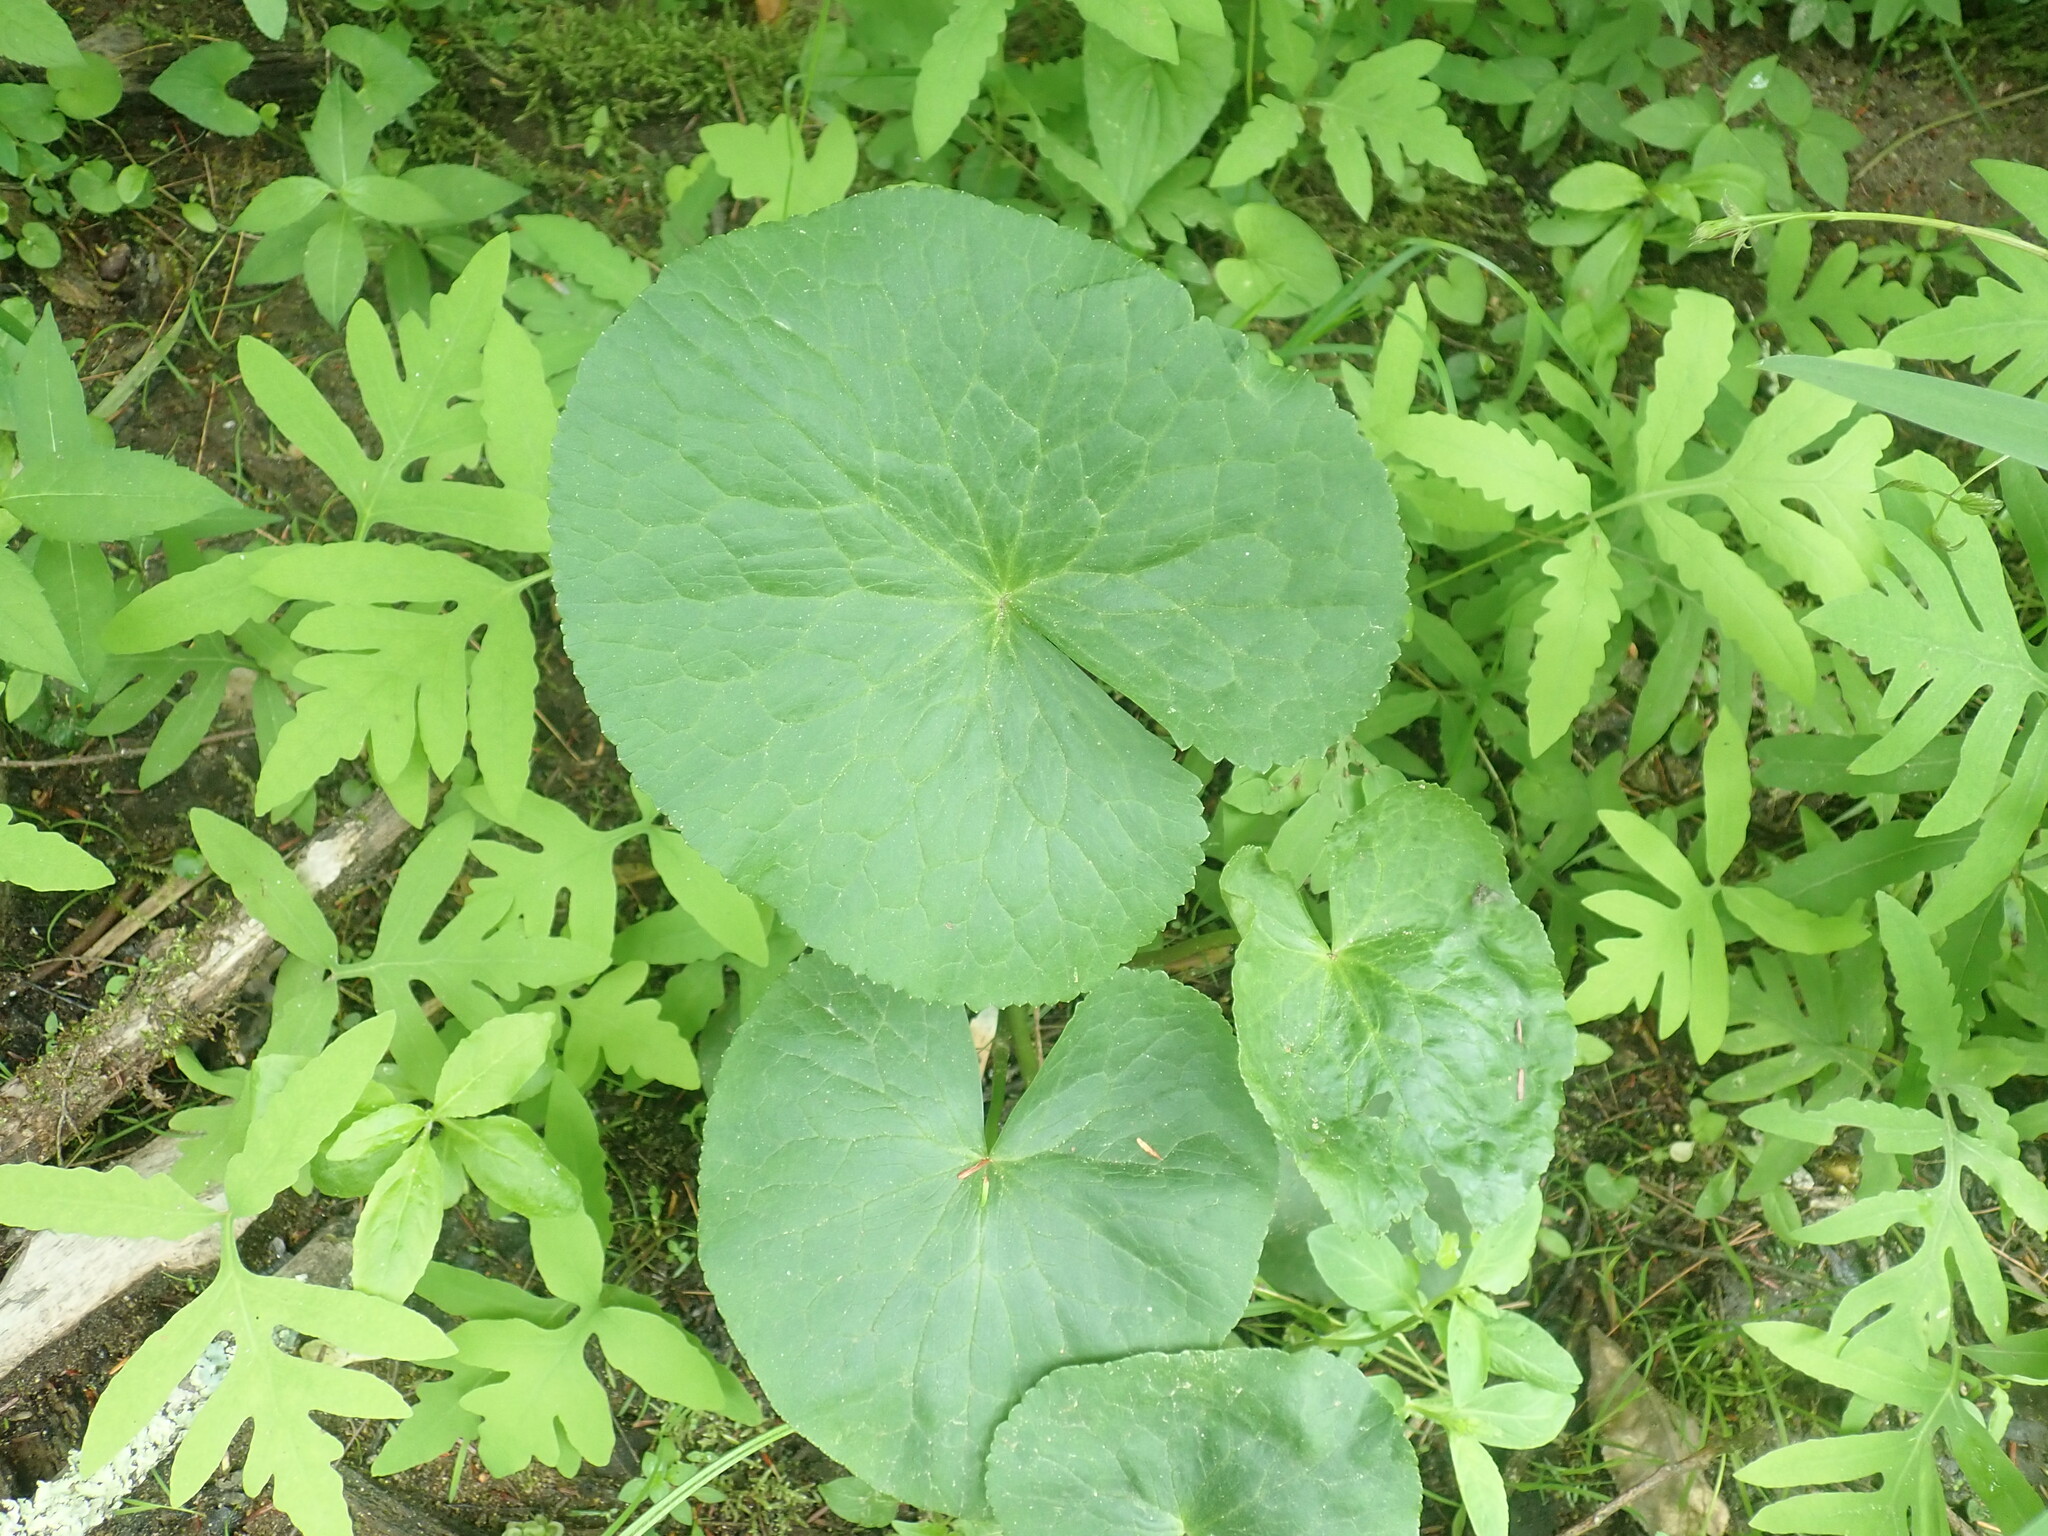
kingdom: Plantae
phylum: Tracheophyta
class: Magnoliopsida
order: Ranunculales
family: Ranunculaceae
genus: Caltha
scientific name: Caltha palustris
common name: Marsh marigold
